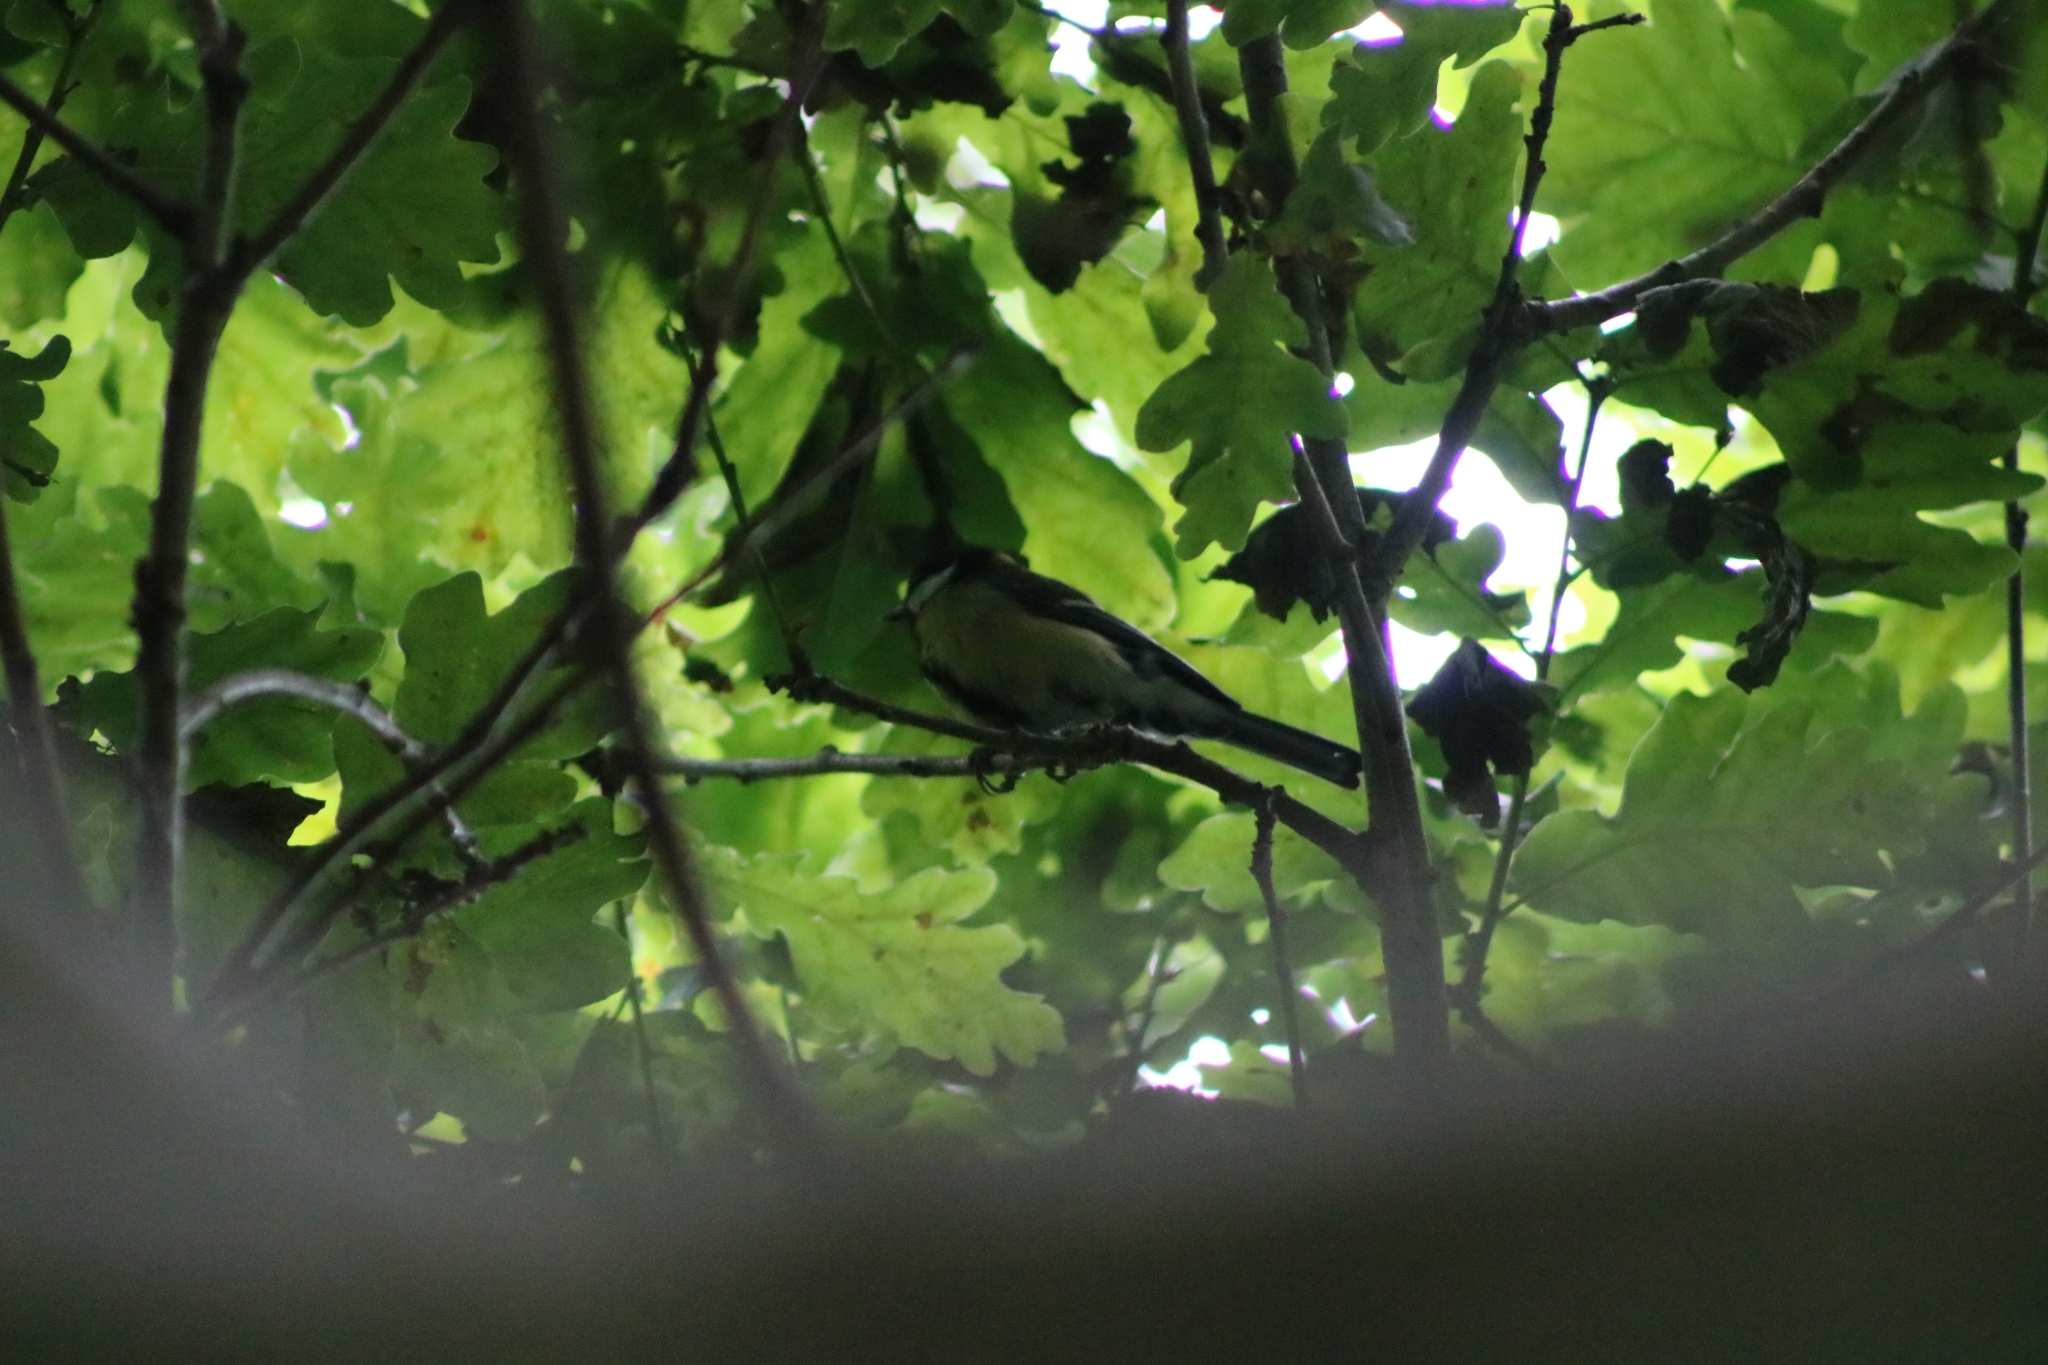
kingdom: Animalia
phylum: Chordata
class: Aves
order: Passeriformes
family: Paridae
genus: Parus
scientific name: Parus major
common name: Great tit
